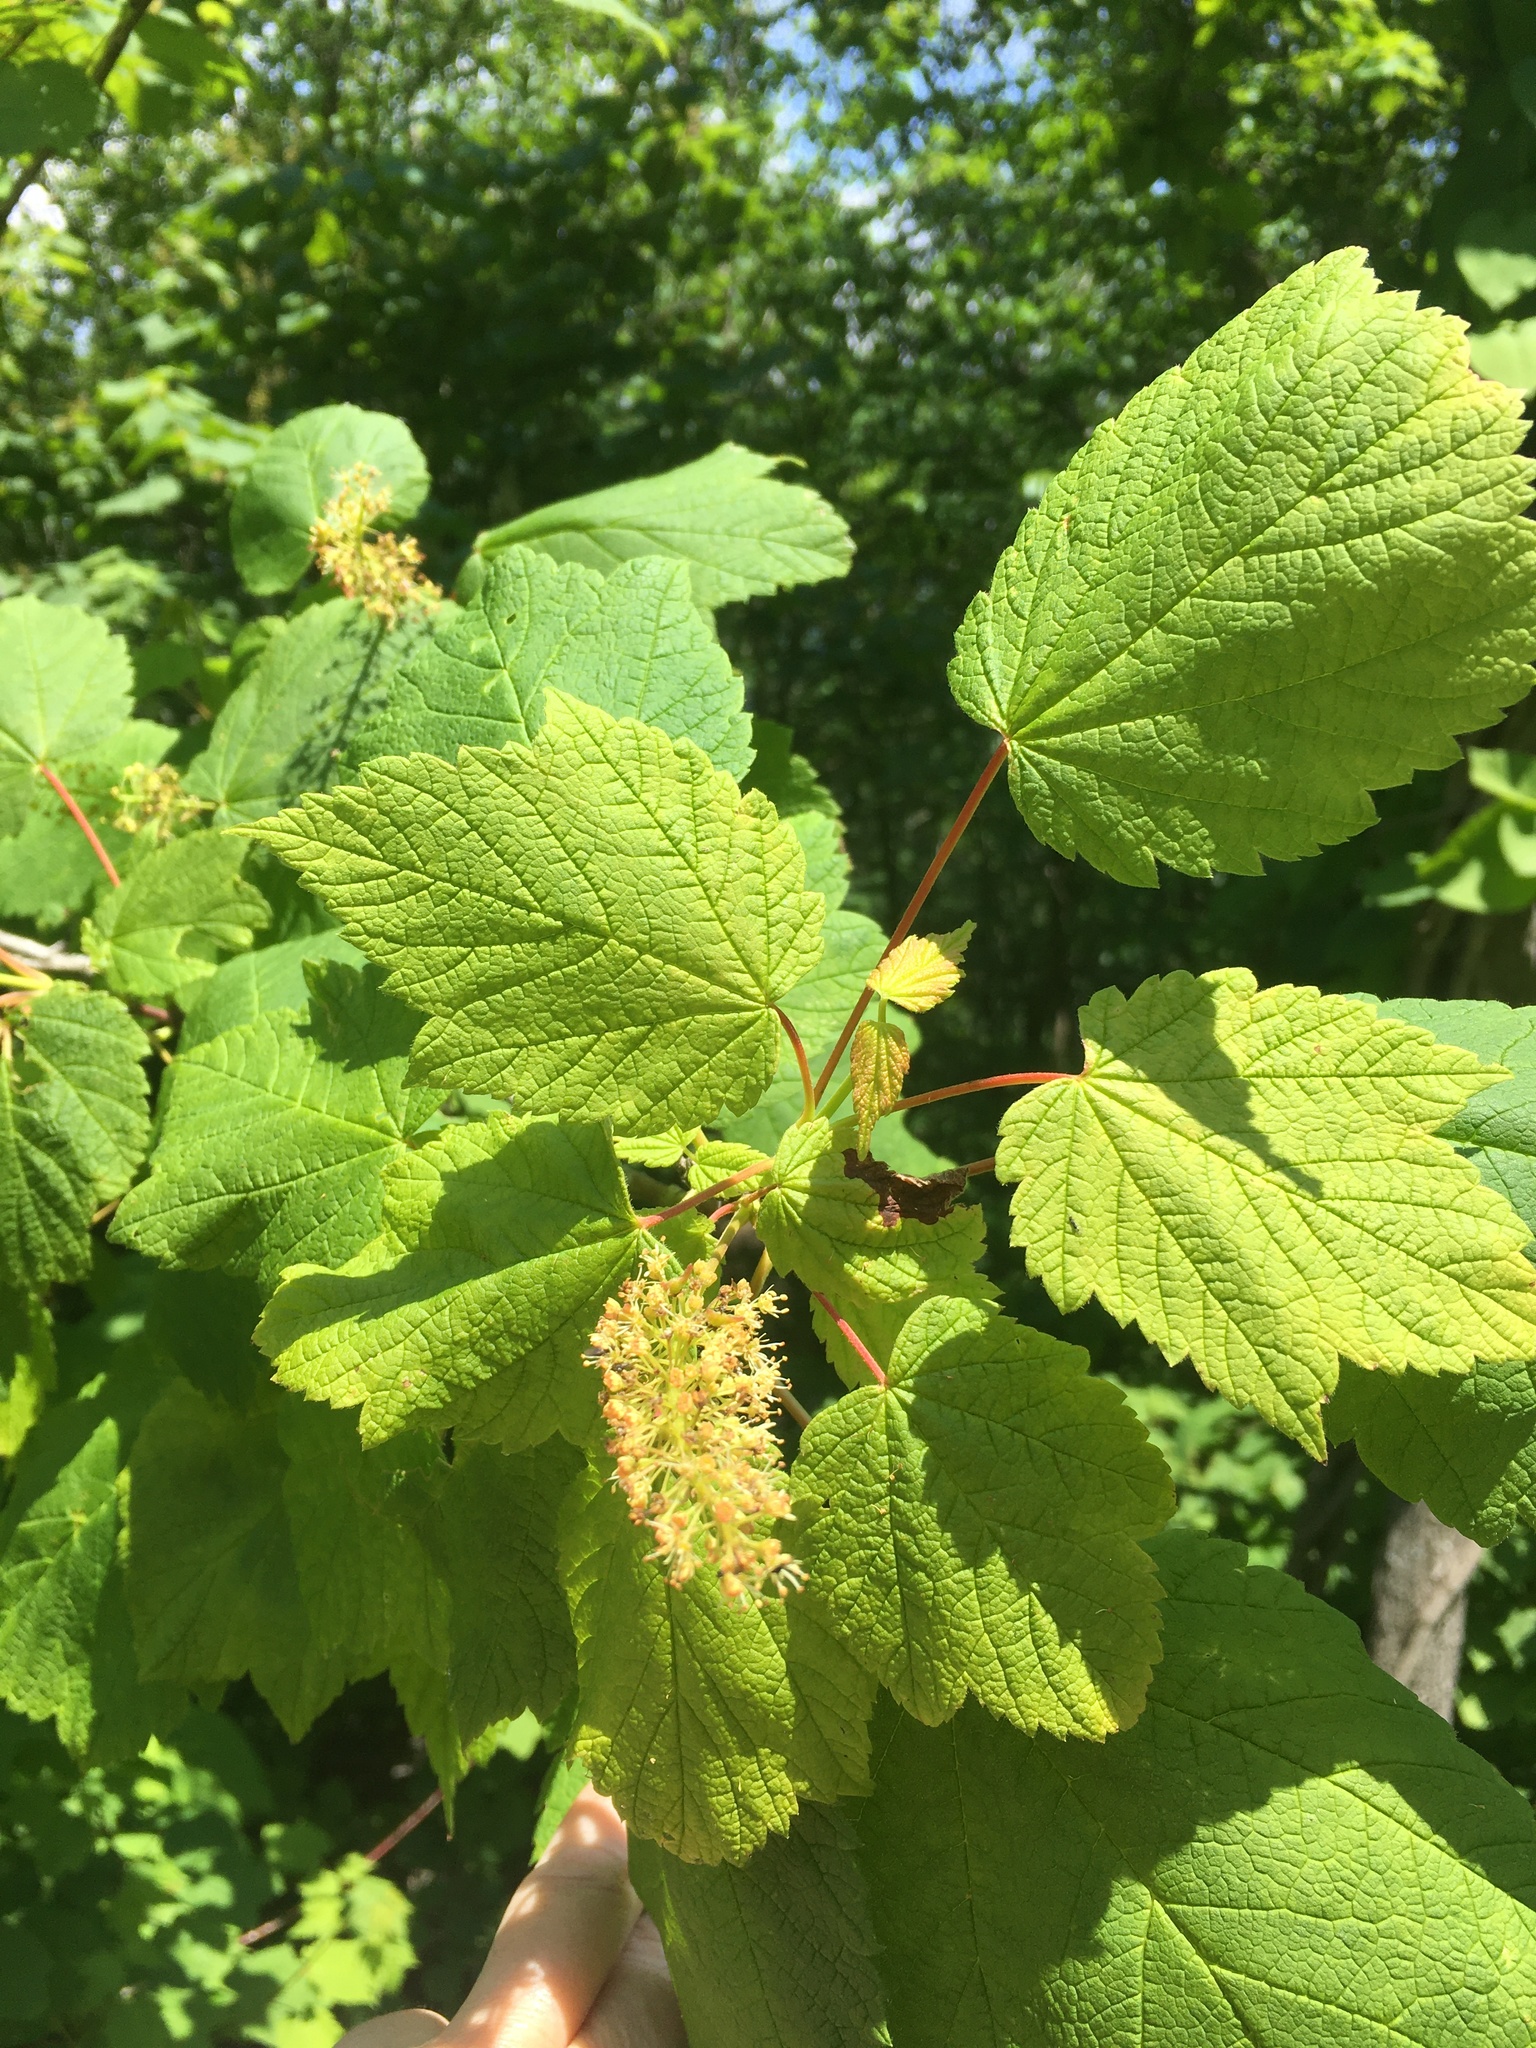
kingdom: Plantae
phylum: Tracheophyta
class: Magnoliopsida
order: Sapindales
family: Sapindaceae
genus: Acer
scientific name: Acer spicatum
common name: Mountain maple
